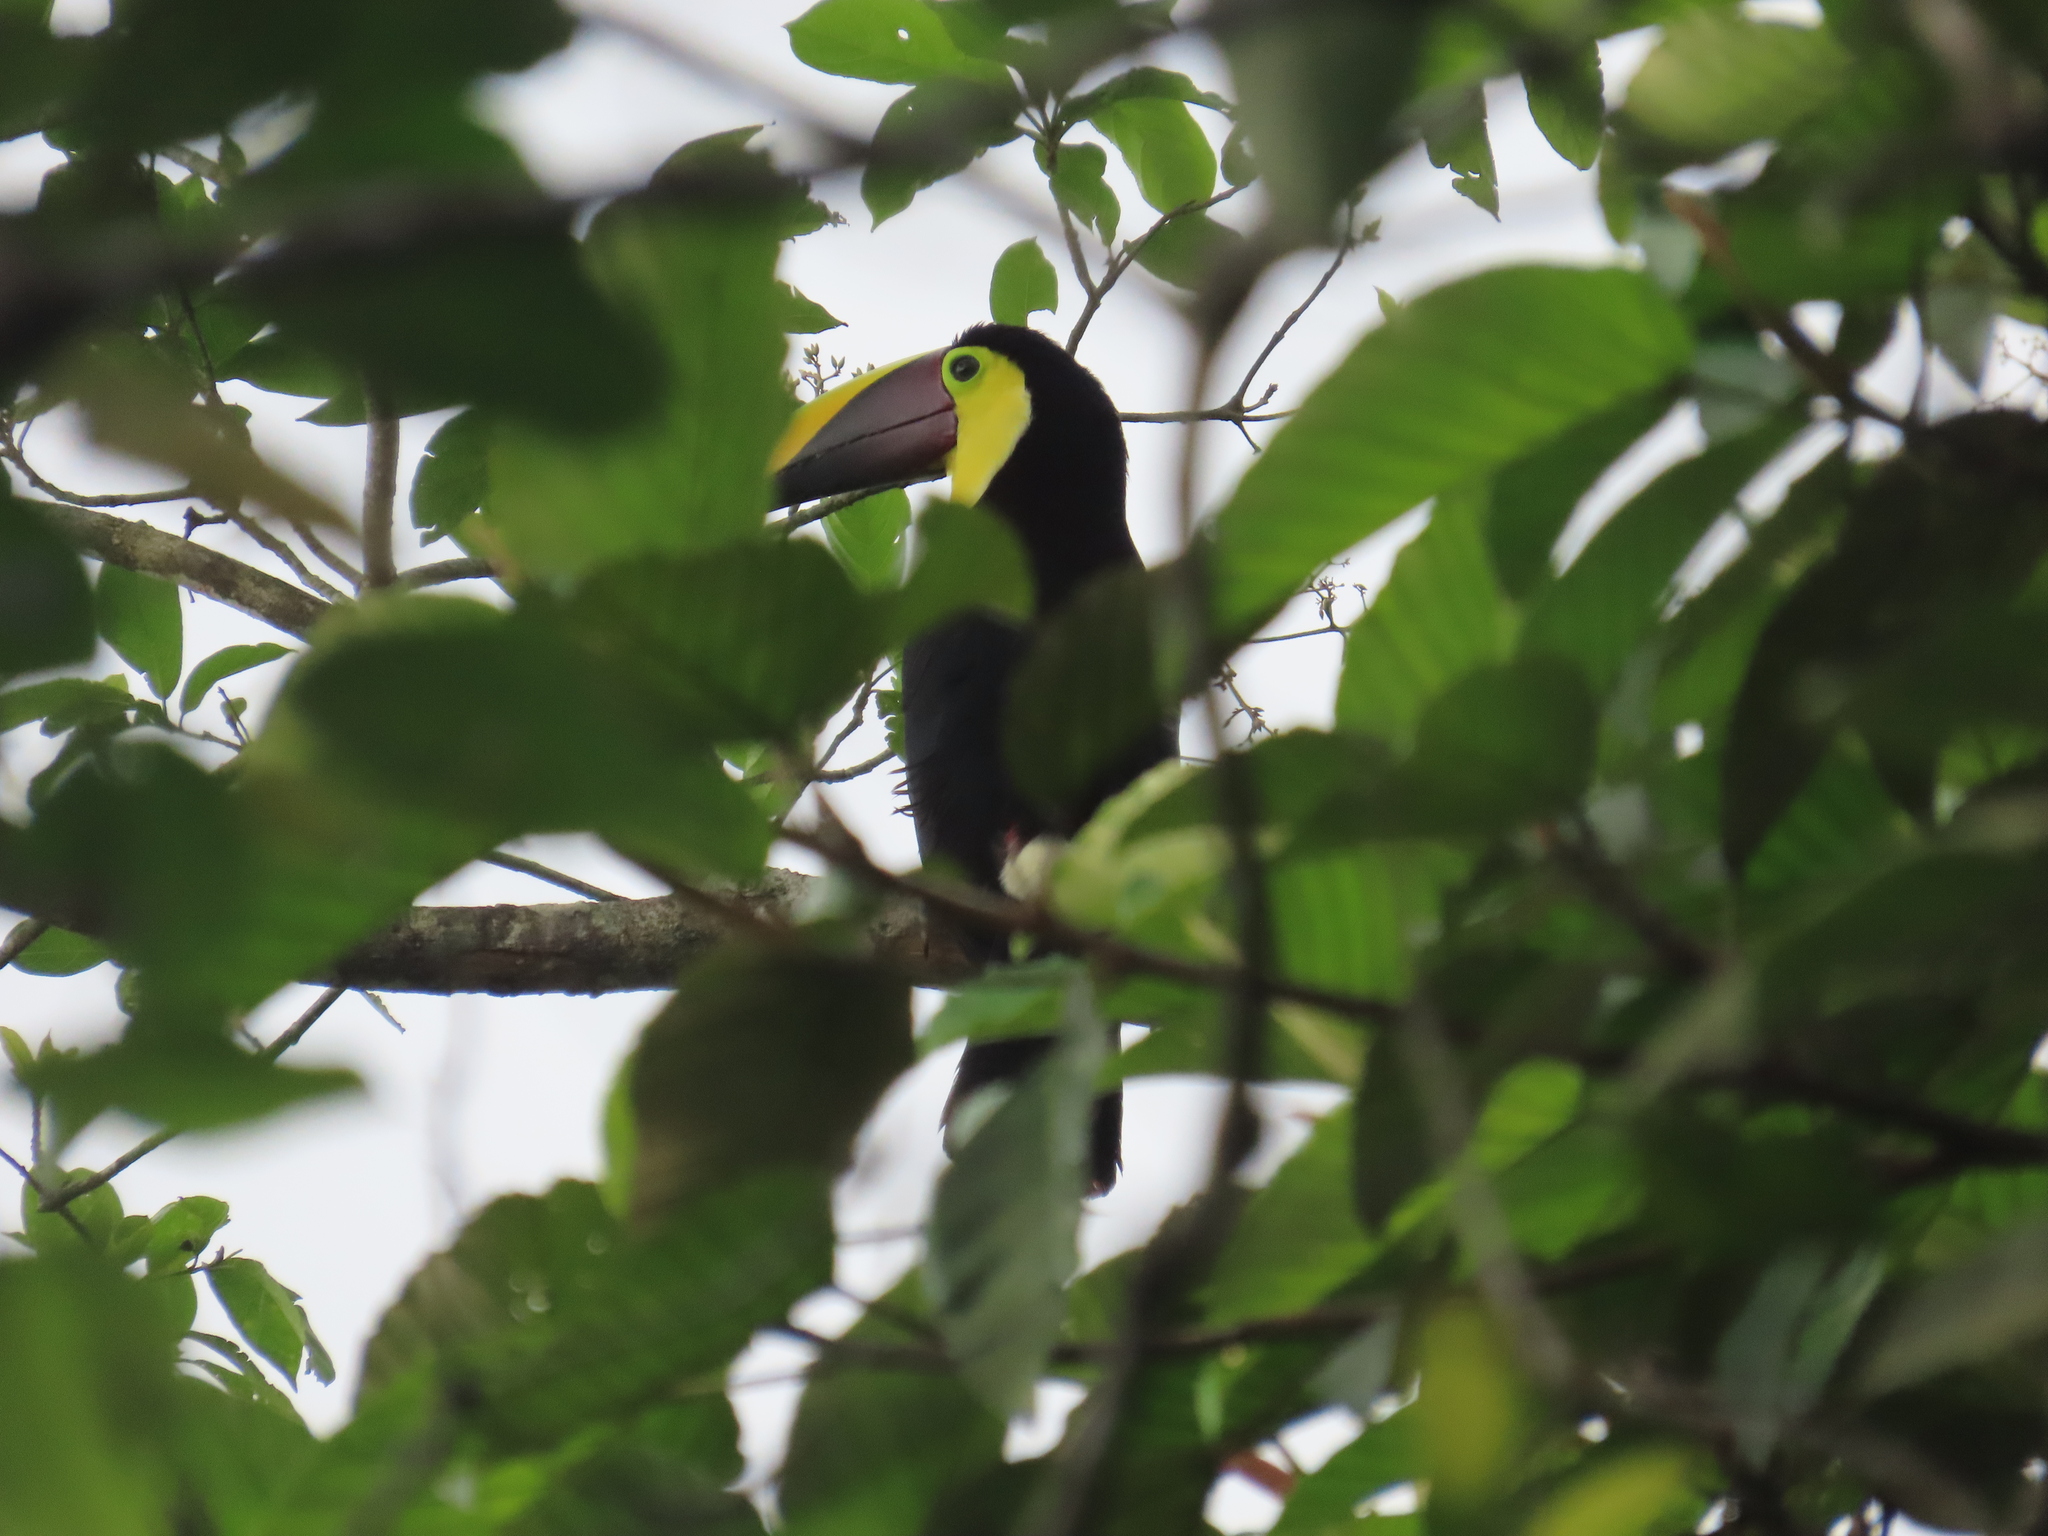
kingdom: Animalia
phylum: Chordata
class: Aves
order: Piciformes
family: Ramphastidae
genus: Ramphastos
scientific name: Ramphastos ambiguus
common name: Yellow-throated toucan
